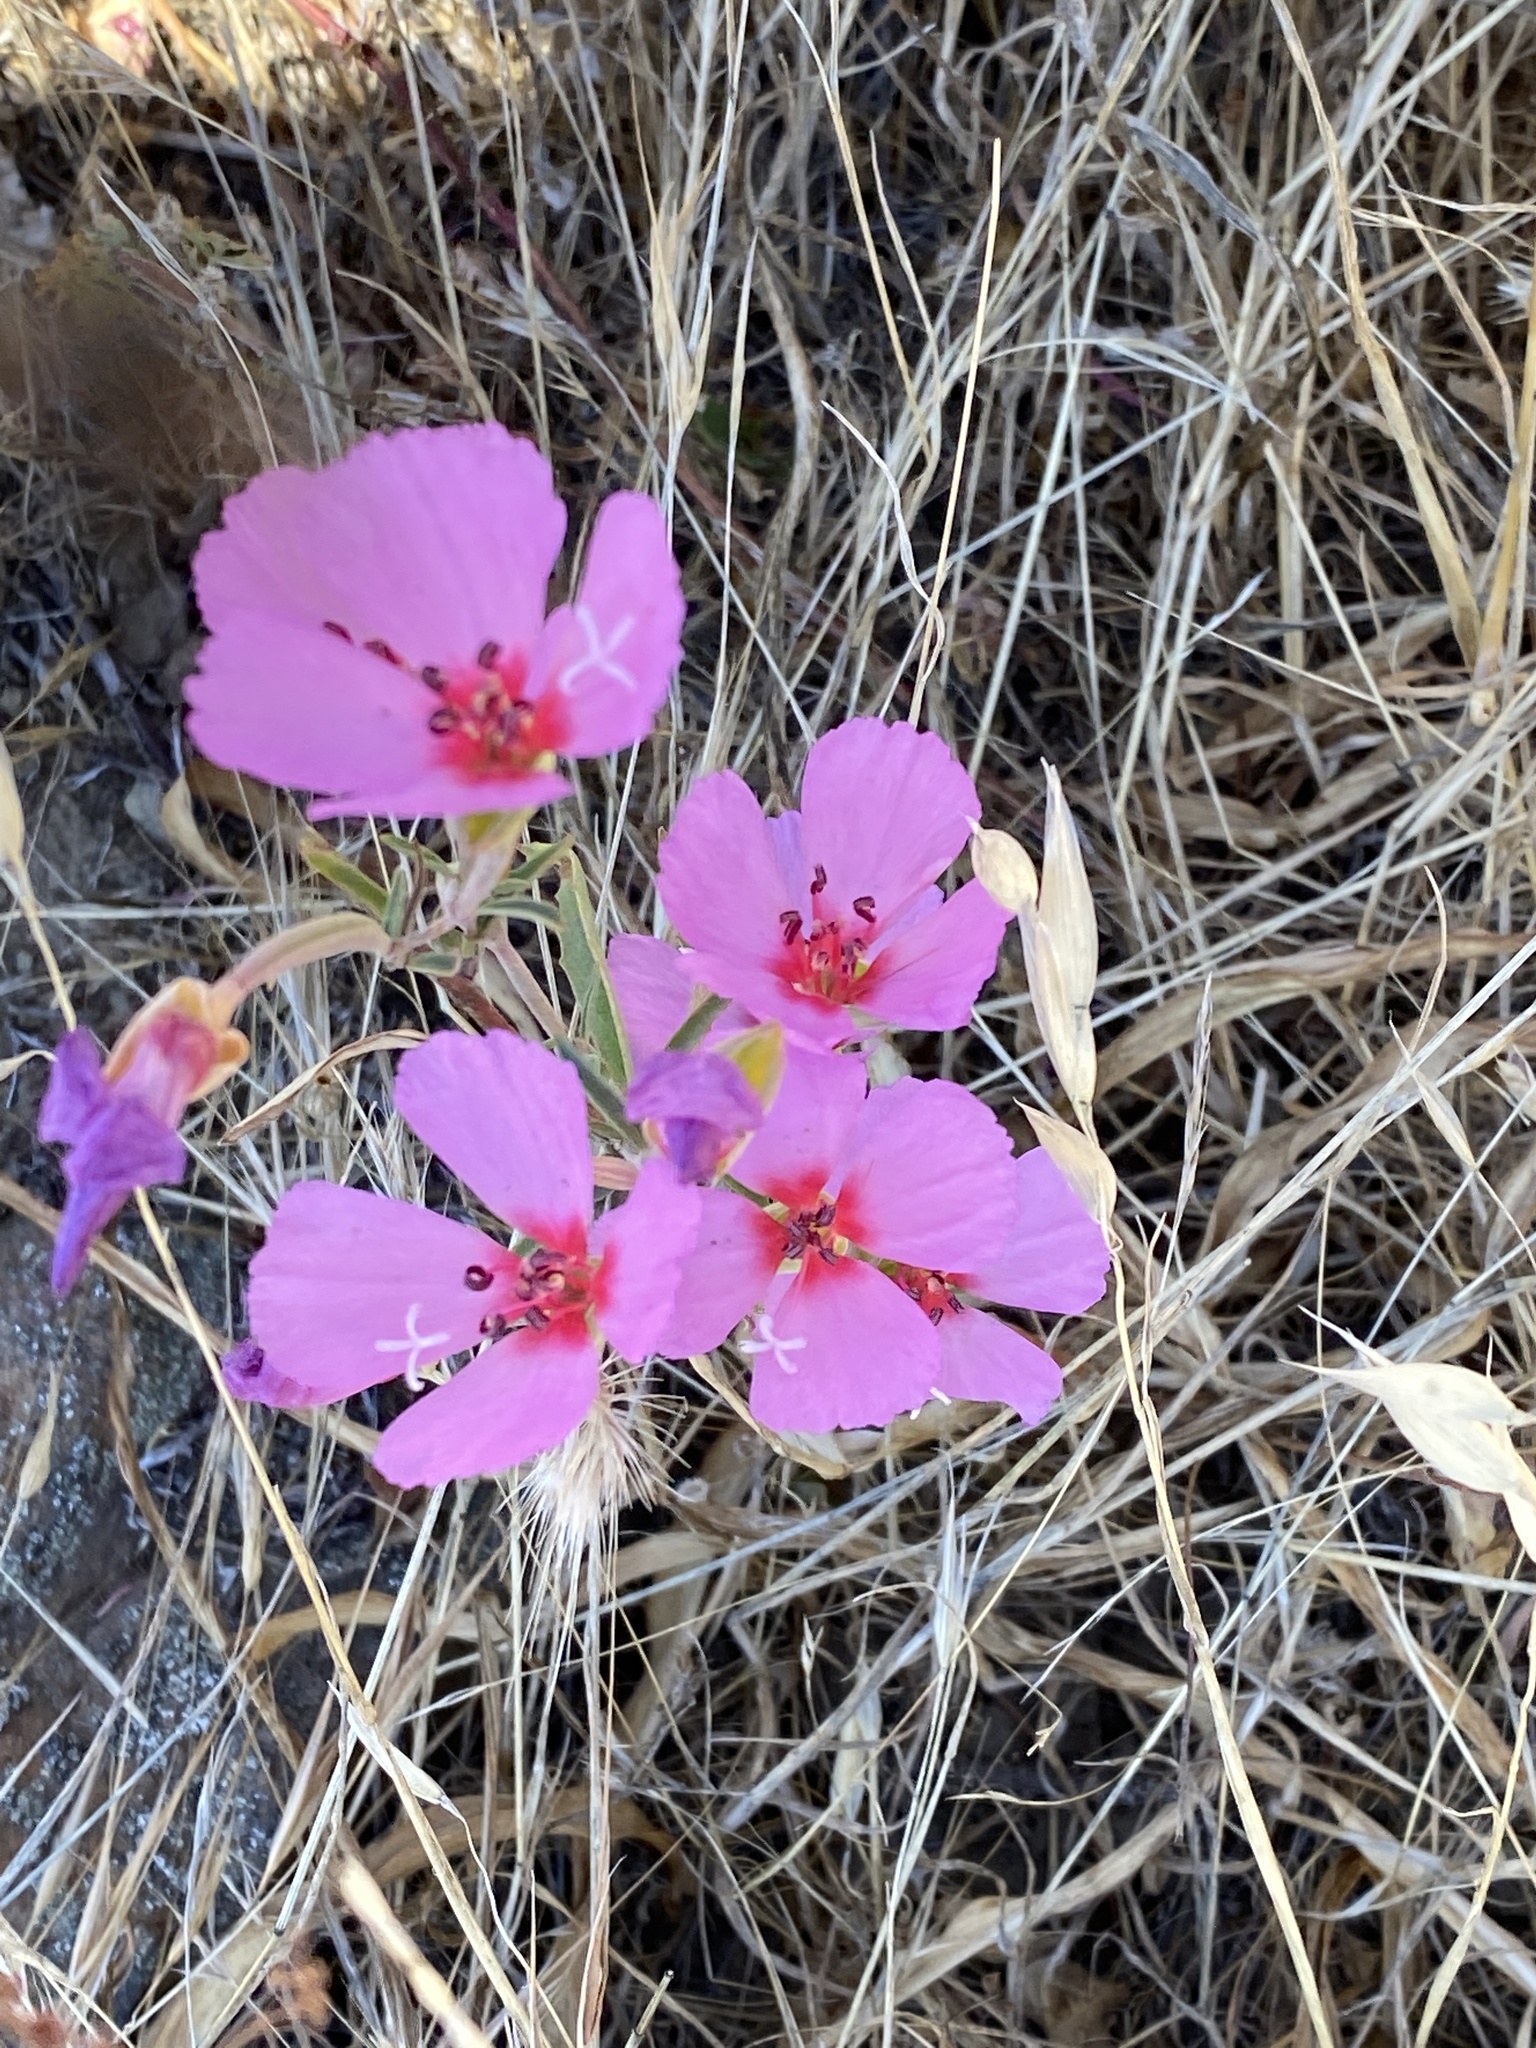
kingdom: Plantae
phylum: Tracheophyta
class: Magnoliopsida
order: Myrtales
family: Onagraceae
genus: Clarkia
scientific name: Clarkia rubicunda
